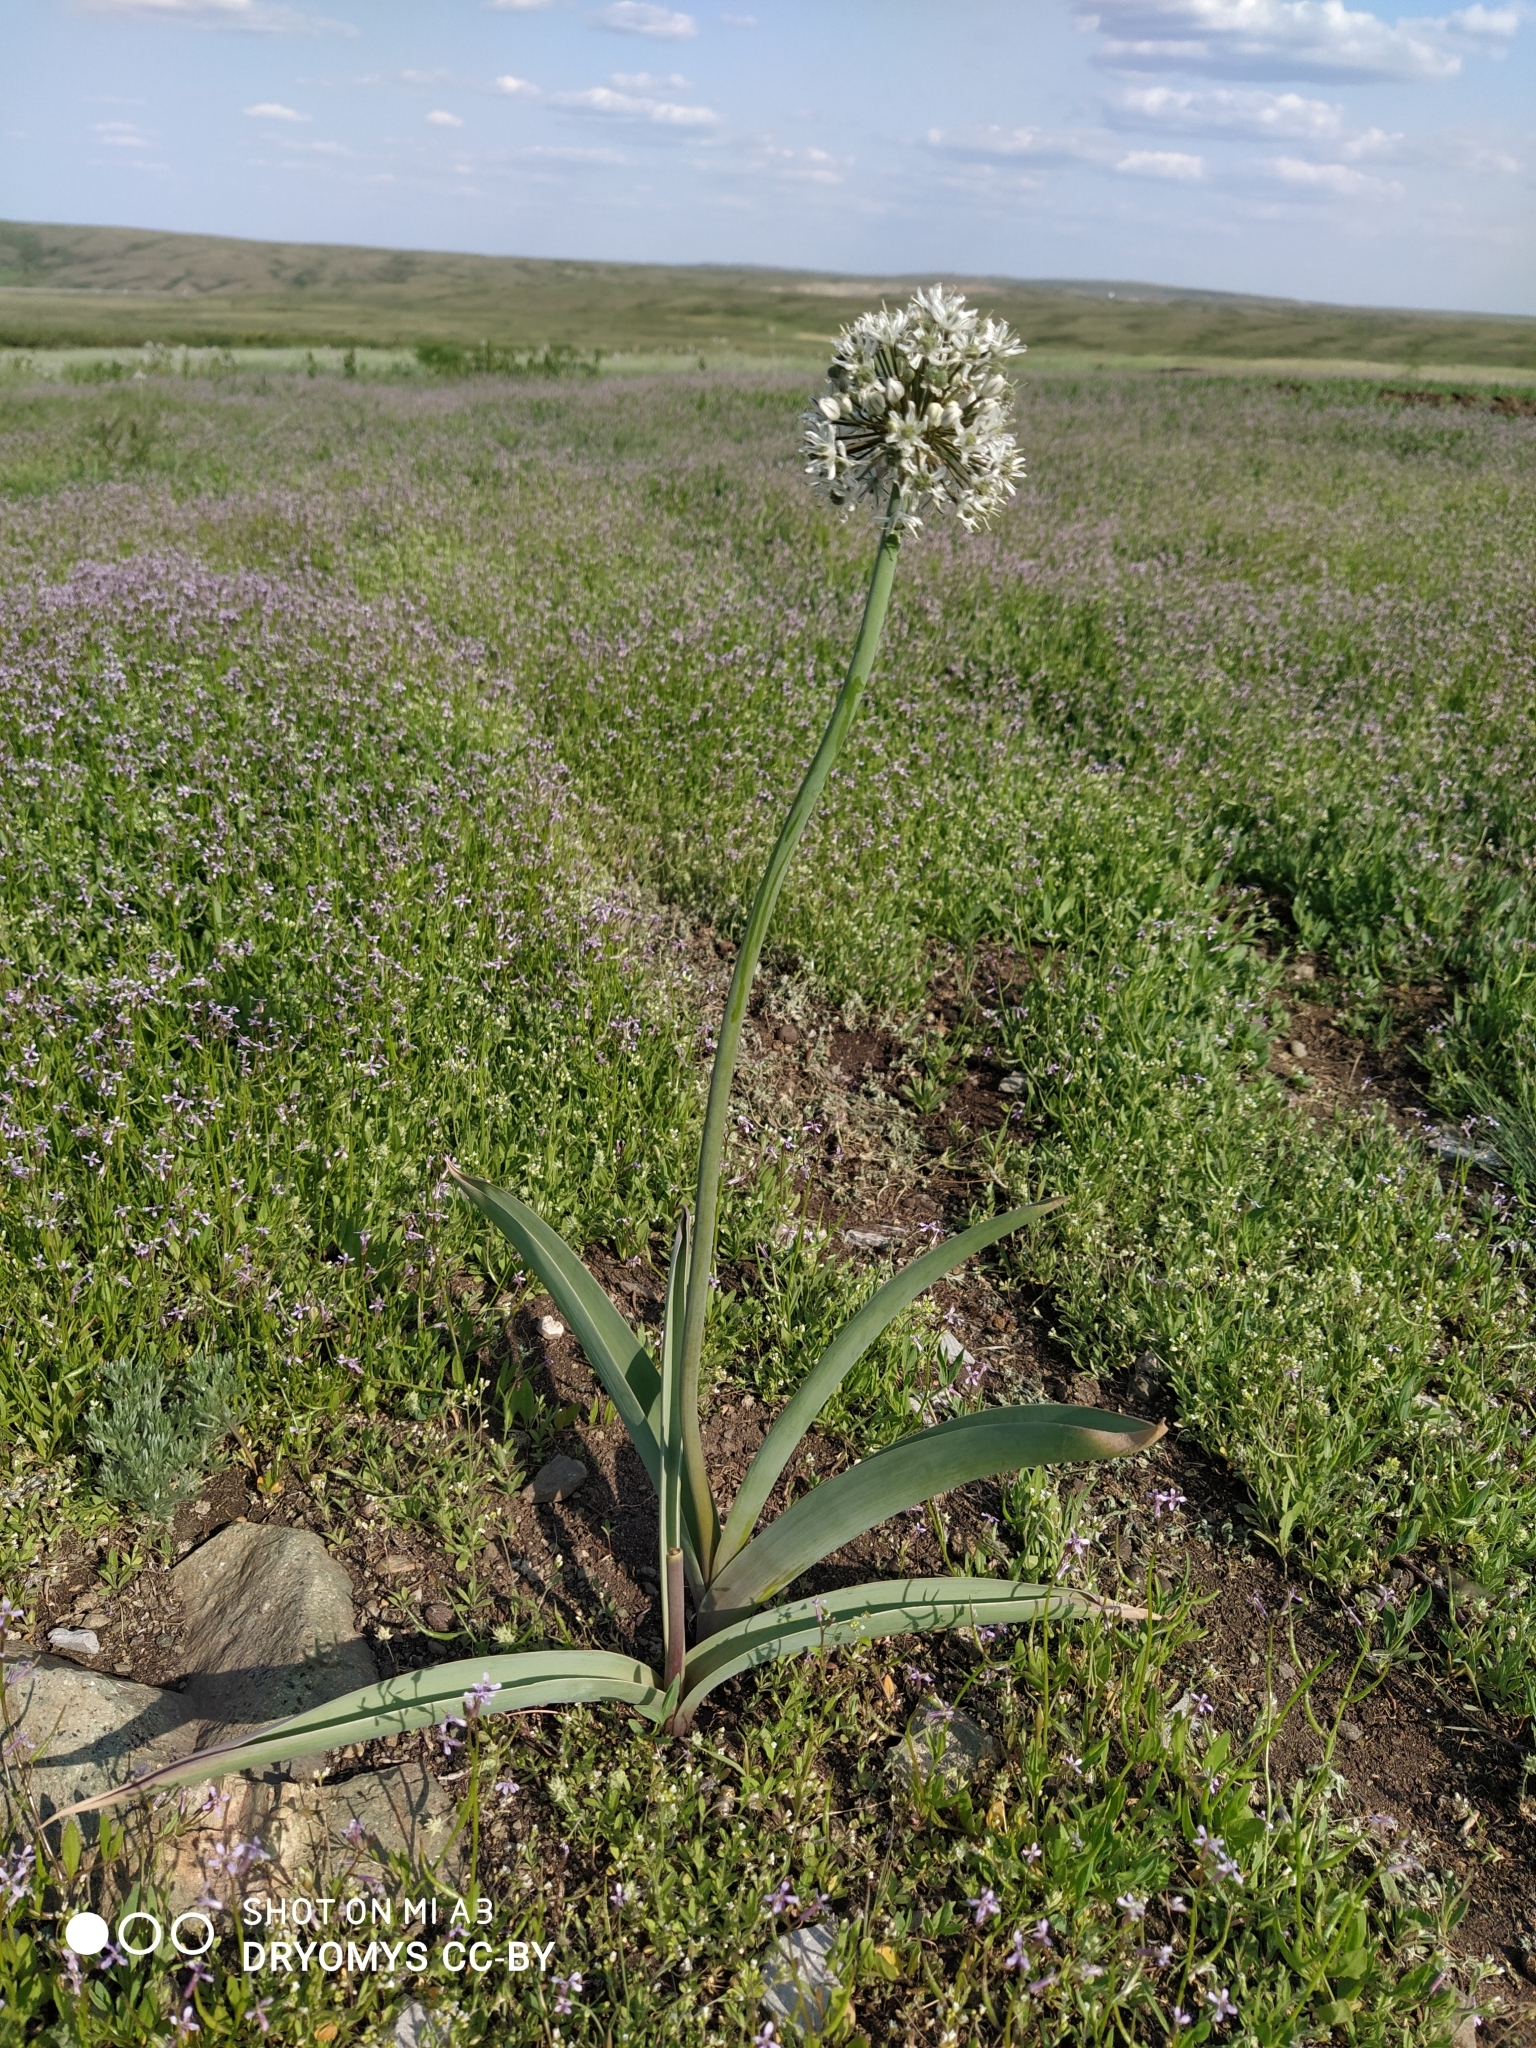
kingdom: Plantae
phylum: Tracheophyta
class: Liliopsida
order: Asparagales
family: Amaryllidaceae
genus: Allium
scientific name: Allium tulipifolium
